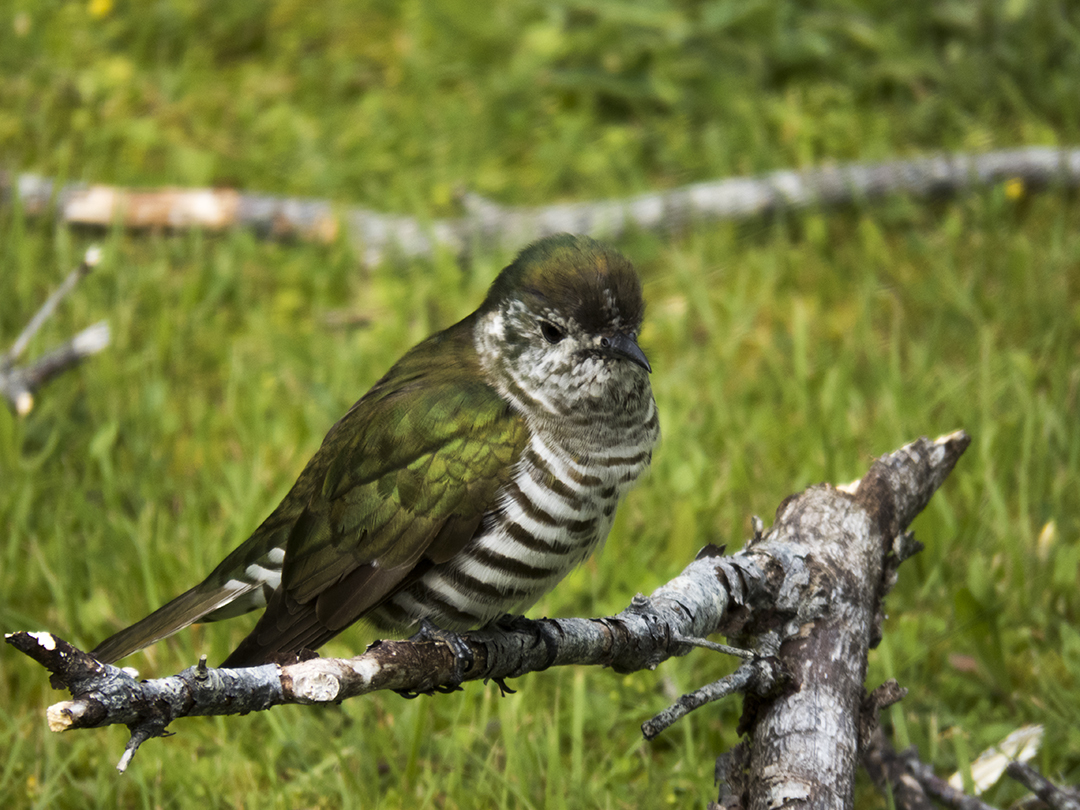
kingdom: Animalia
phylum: Chordata
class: Aves
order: Cuculiformes
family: Cuculidae
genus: Chrysococcyx
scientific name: Chrysococcyx lucidus
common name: Shining bronze cuckoo
